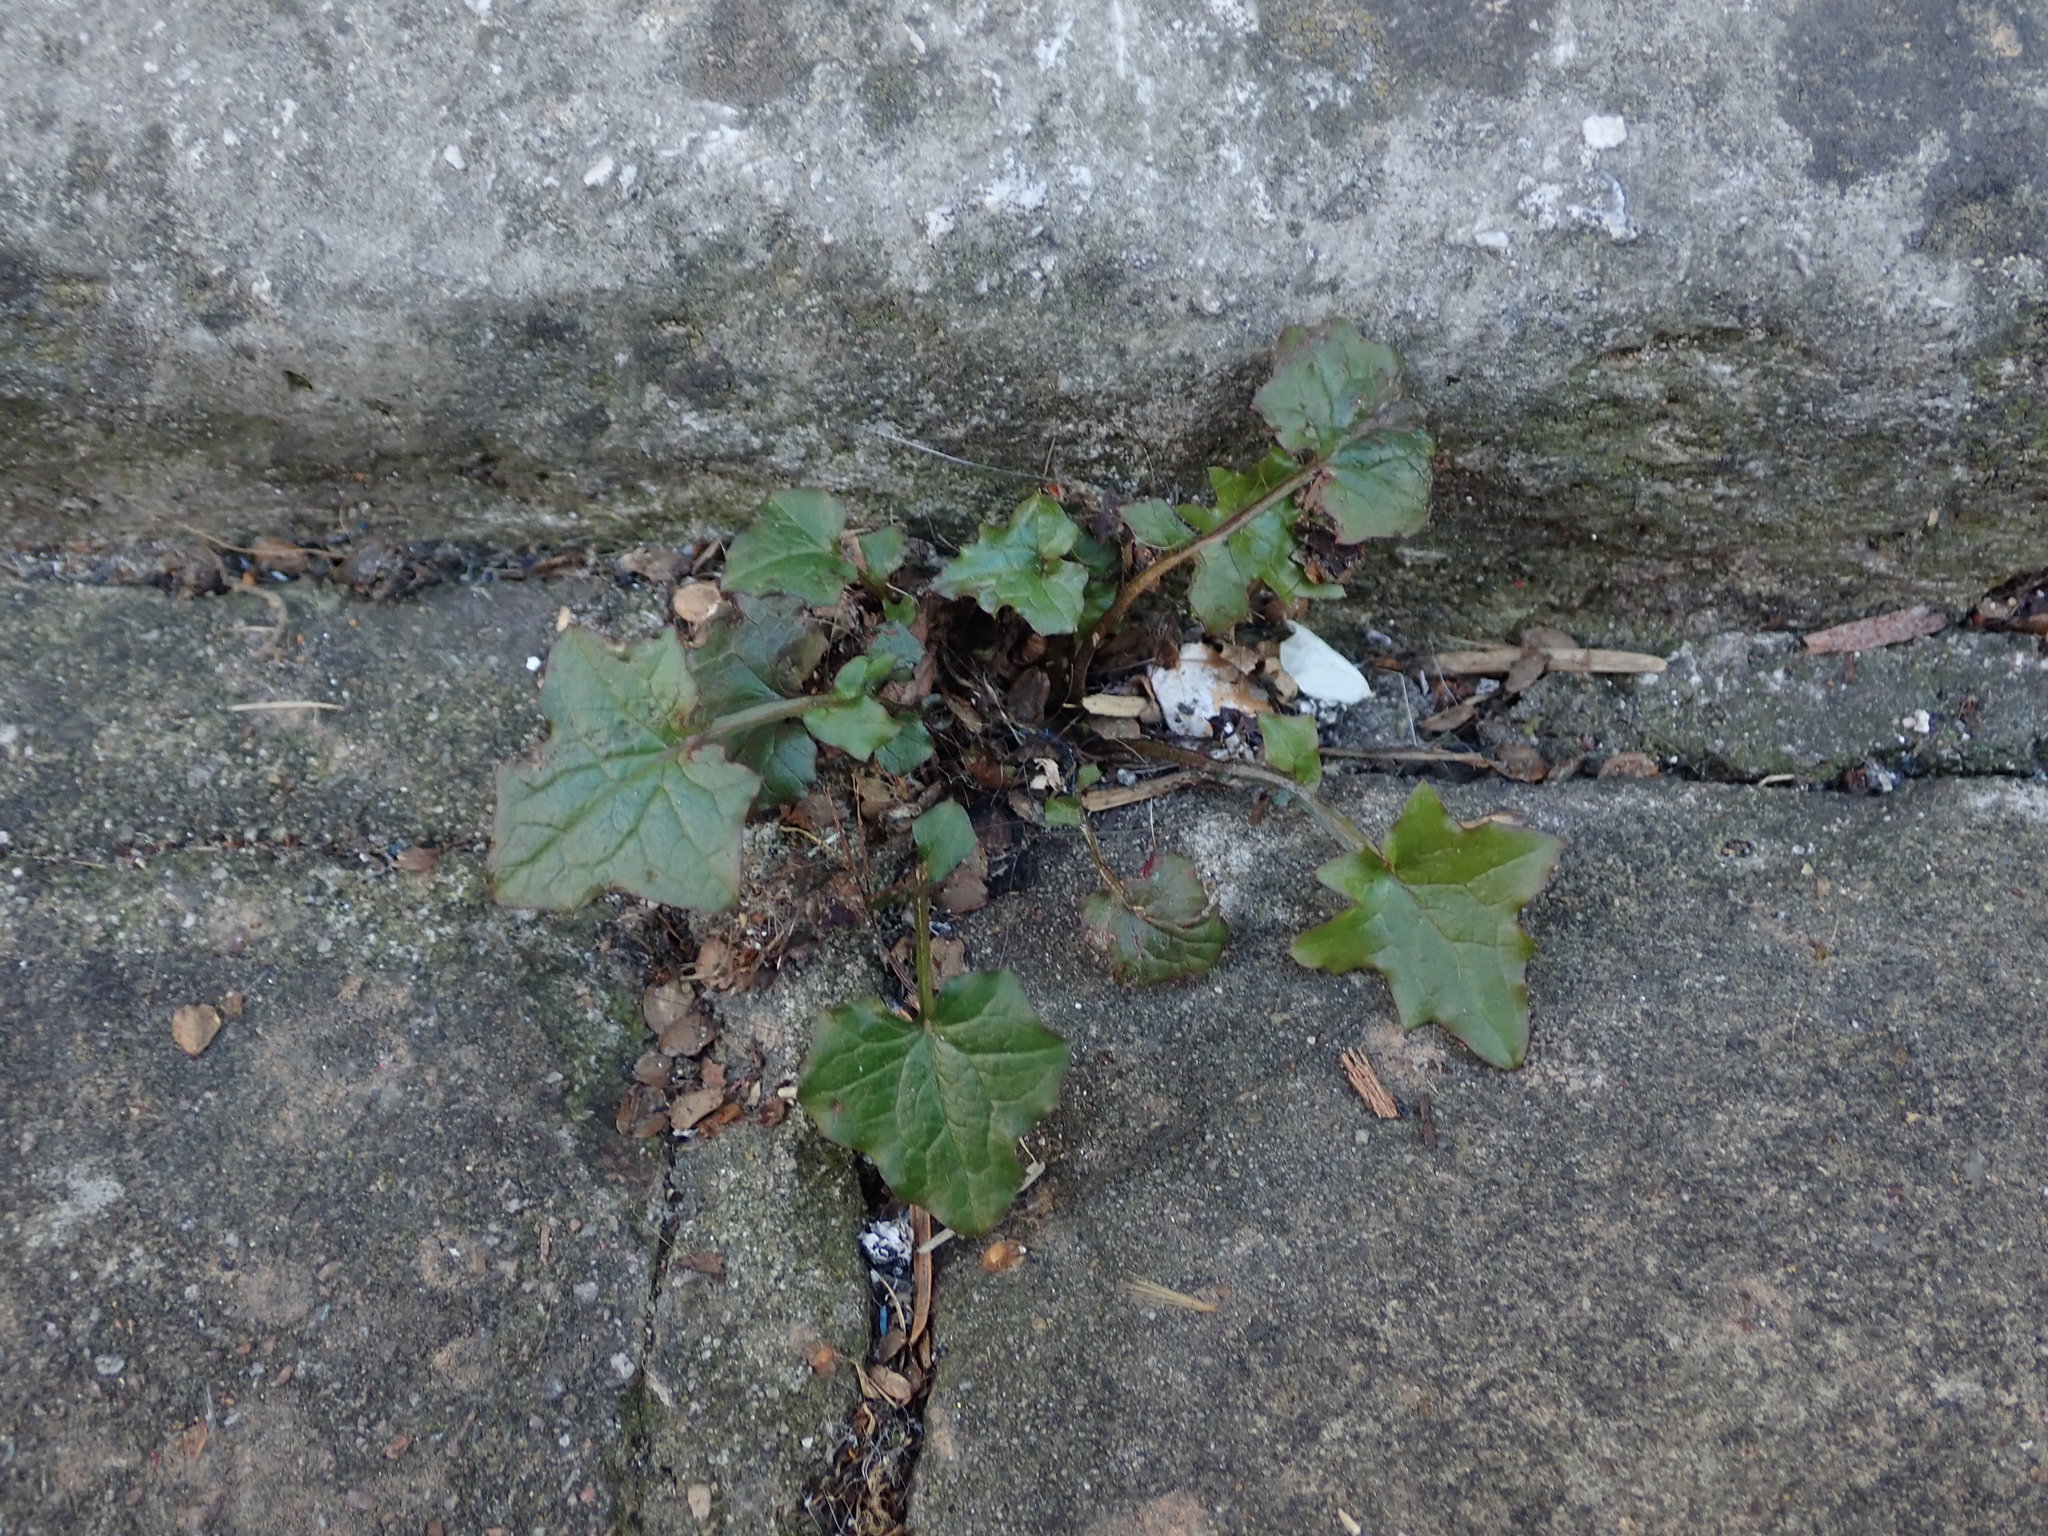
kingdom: Plantae
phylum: Tracheophyta
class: Magnoliopsida
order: Asterales
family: Asteraceae
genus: Mycelis
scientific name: Mycelis muralis
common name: Wall lettuce
